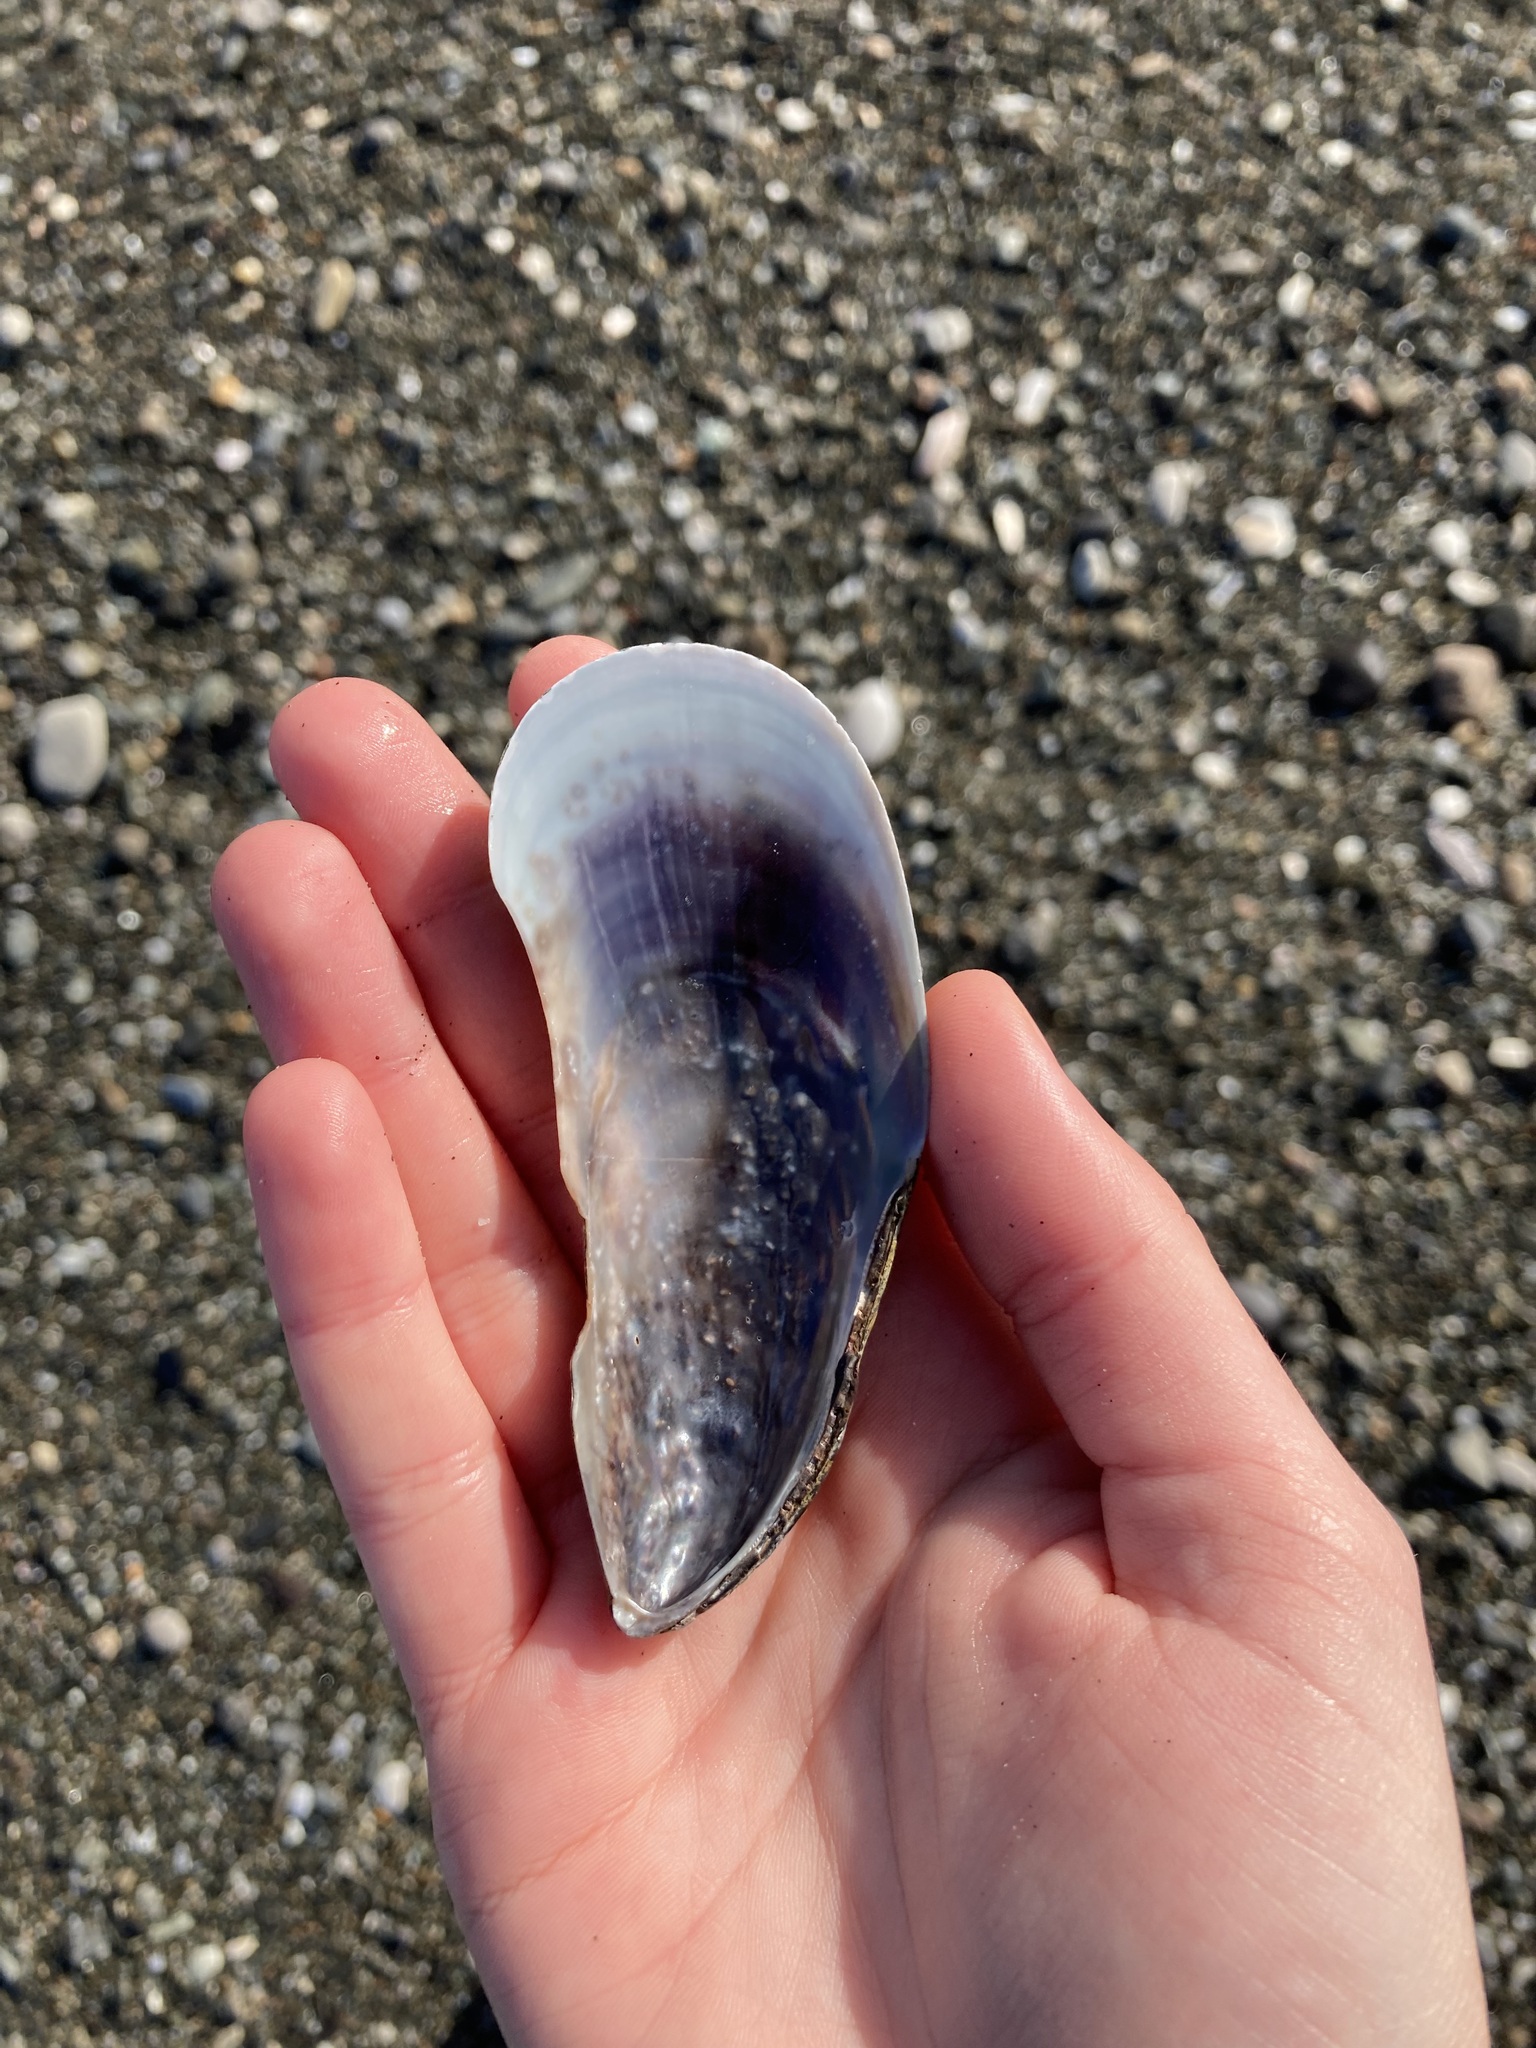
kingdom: Animalia
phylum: Mollusca
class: Bivalvia
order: Mytilida
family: Mytilidae
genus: Perna
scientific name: Perna canaliculus
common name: New zealand greenshelltm
